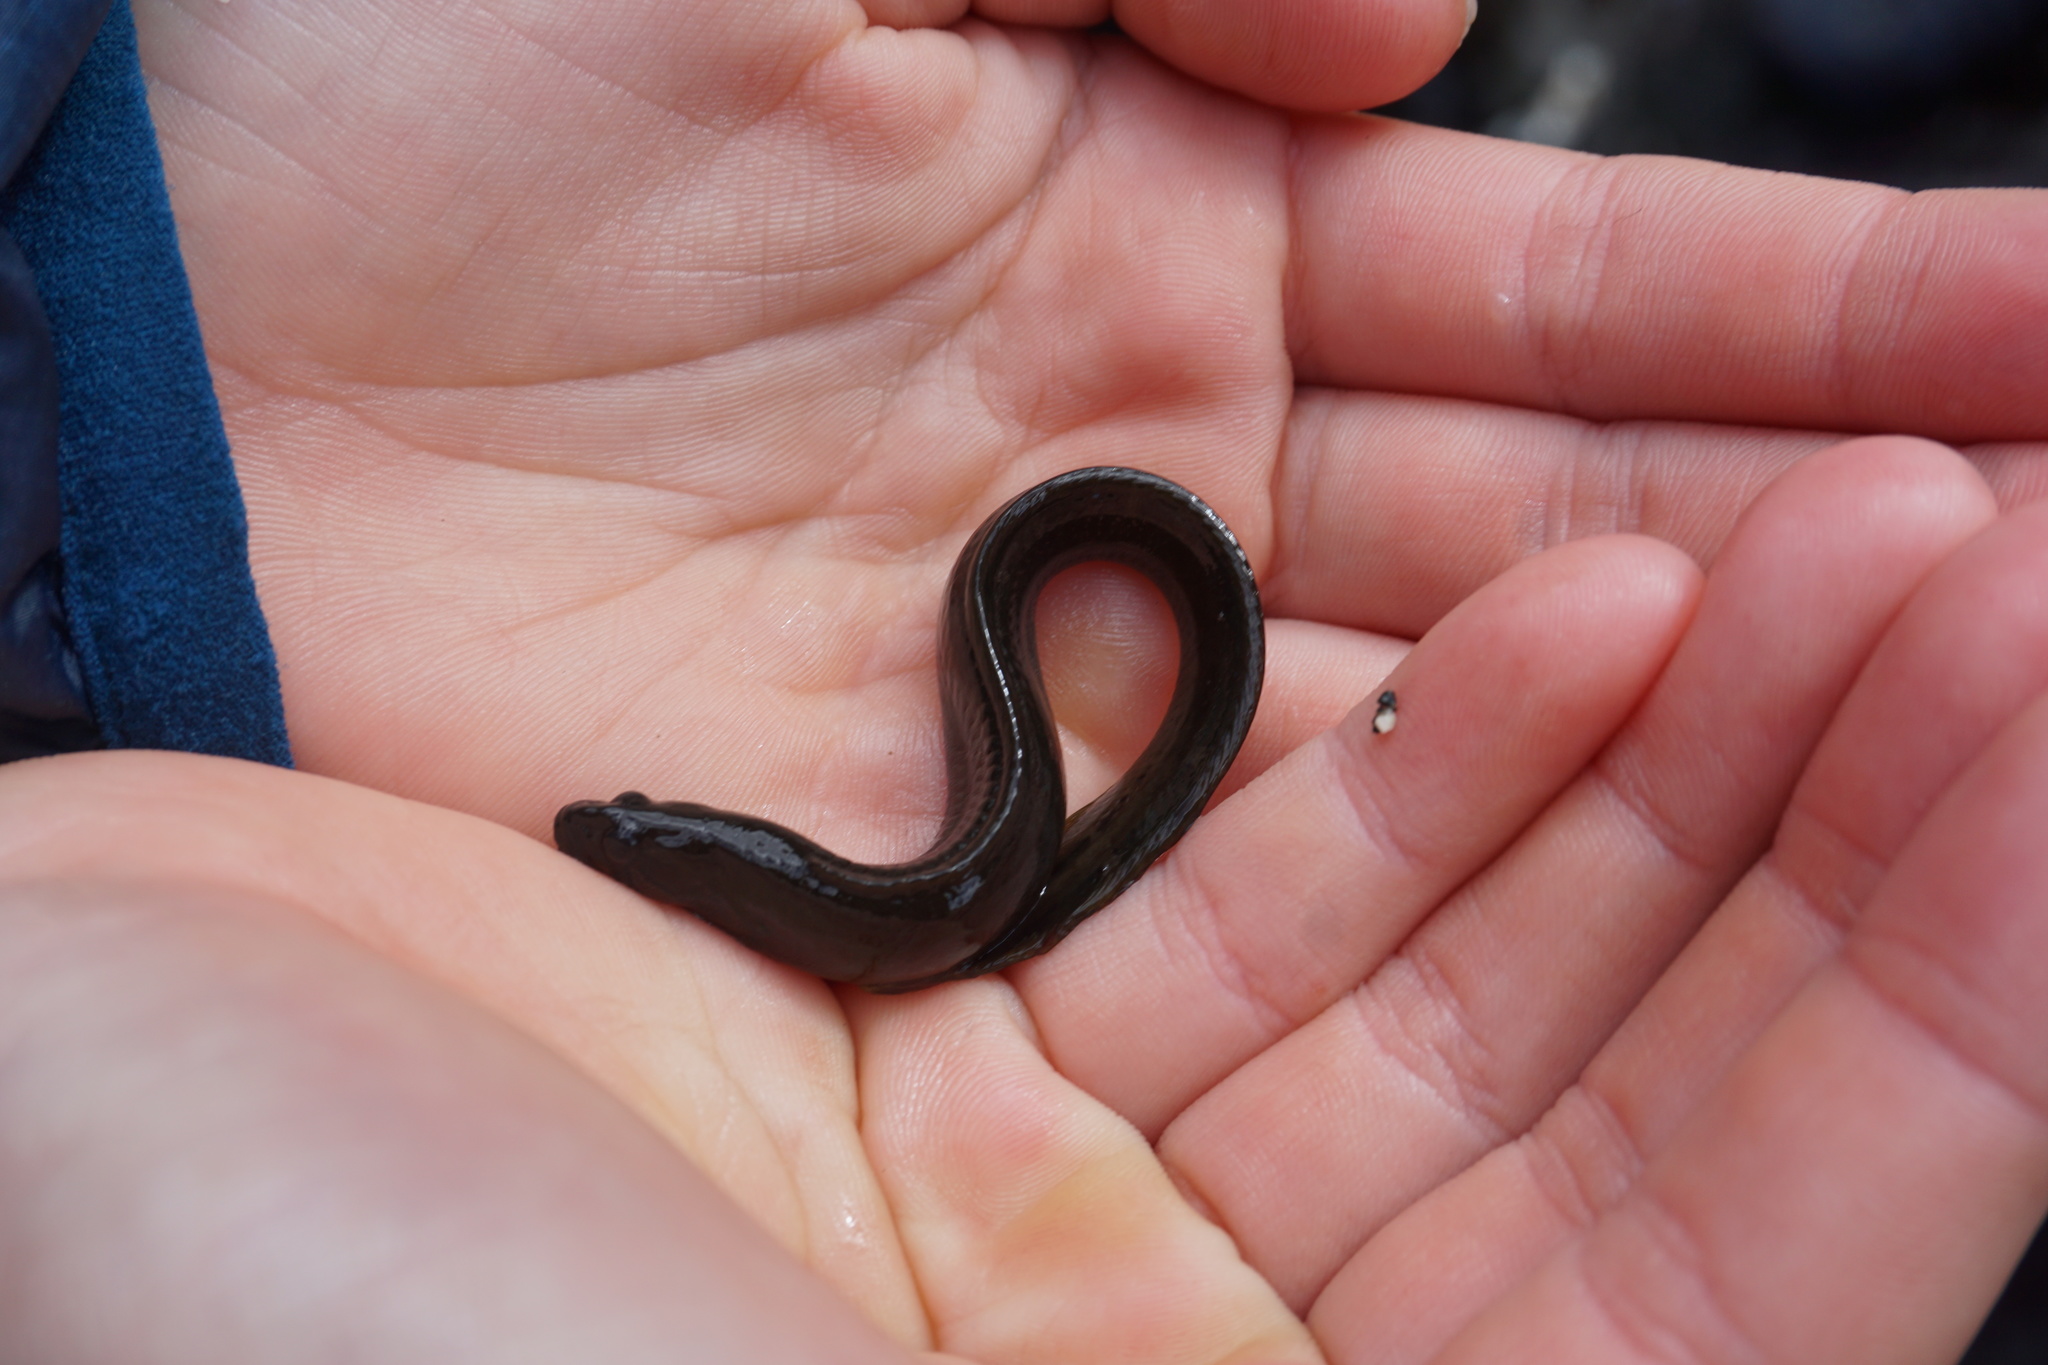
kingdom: Animalia
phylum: Chordata
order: Perciformes
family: Stichaeidae
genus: Xiphister
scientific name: Xiphister atropurpureus
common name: Black prickleback
